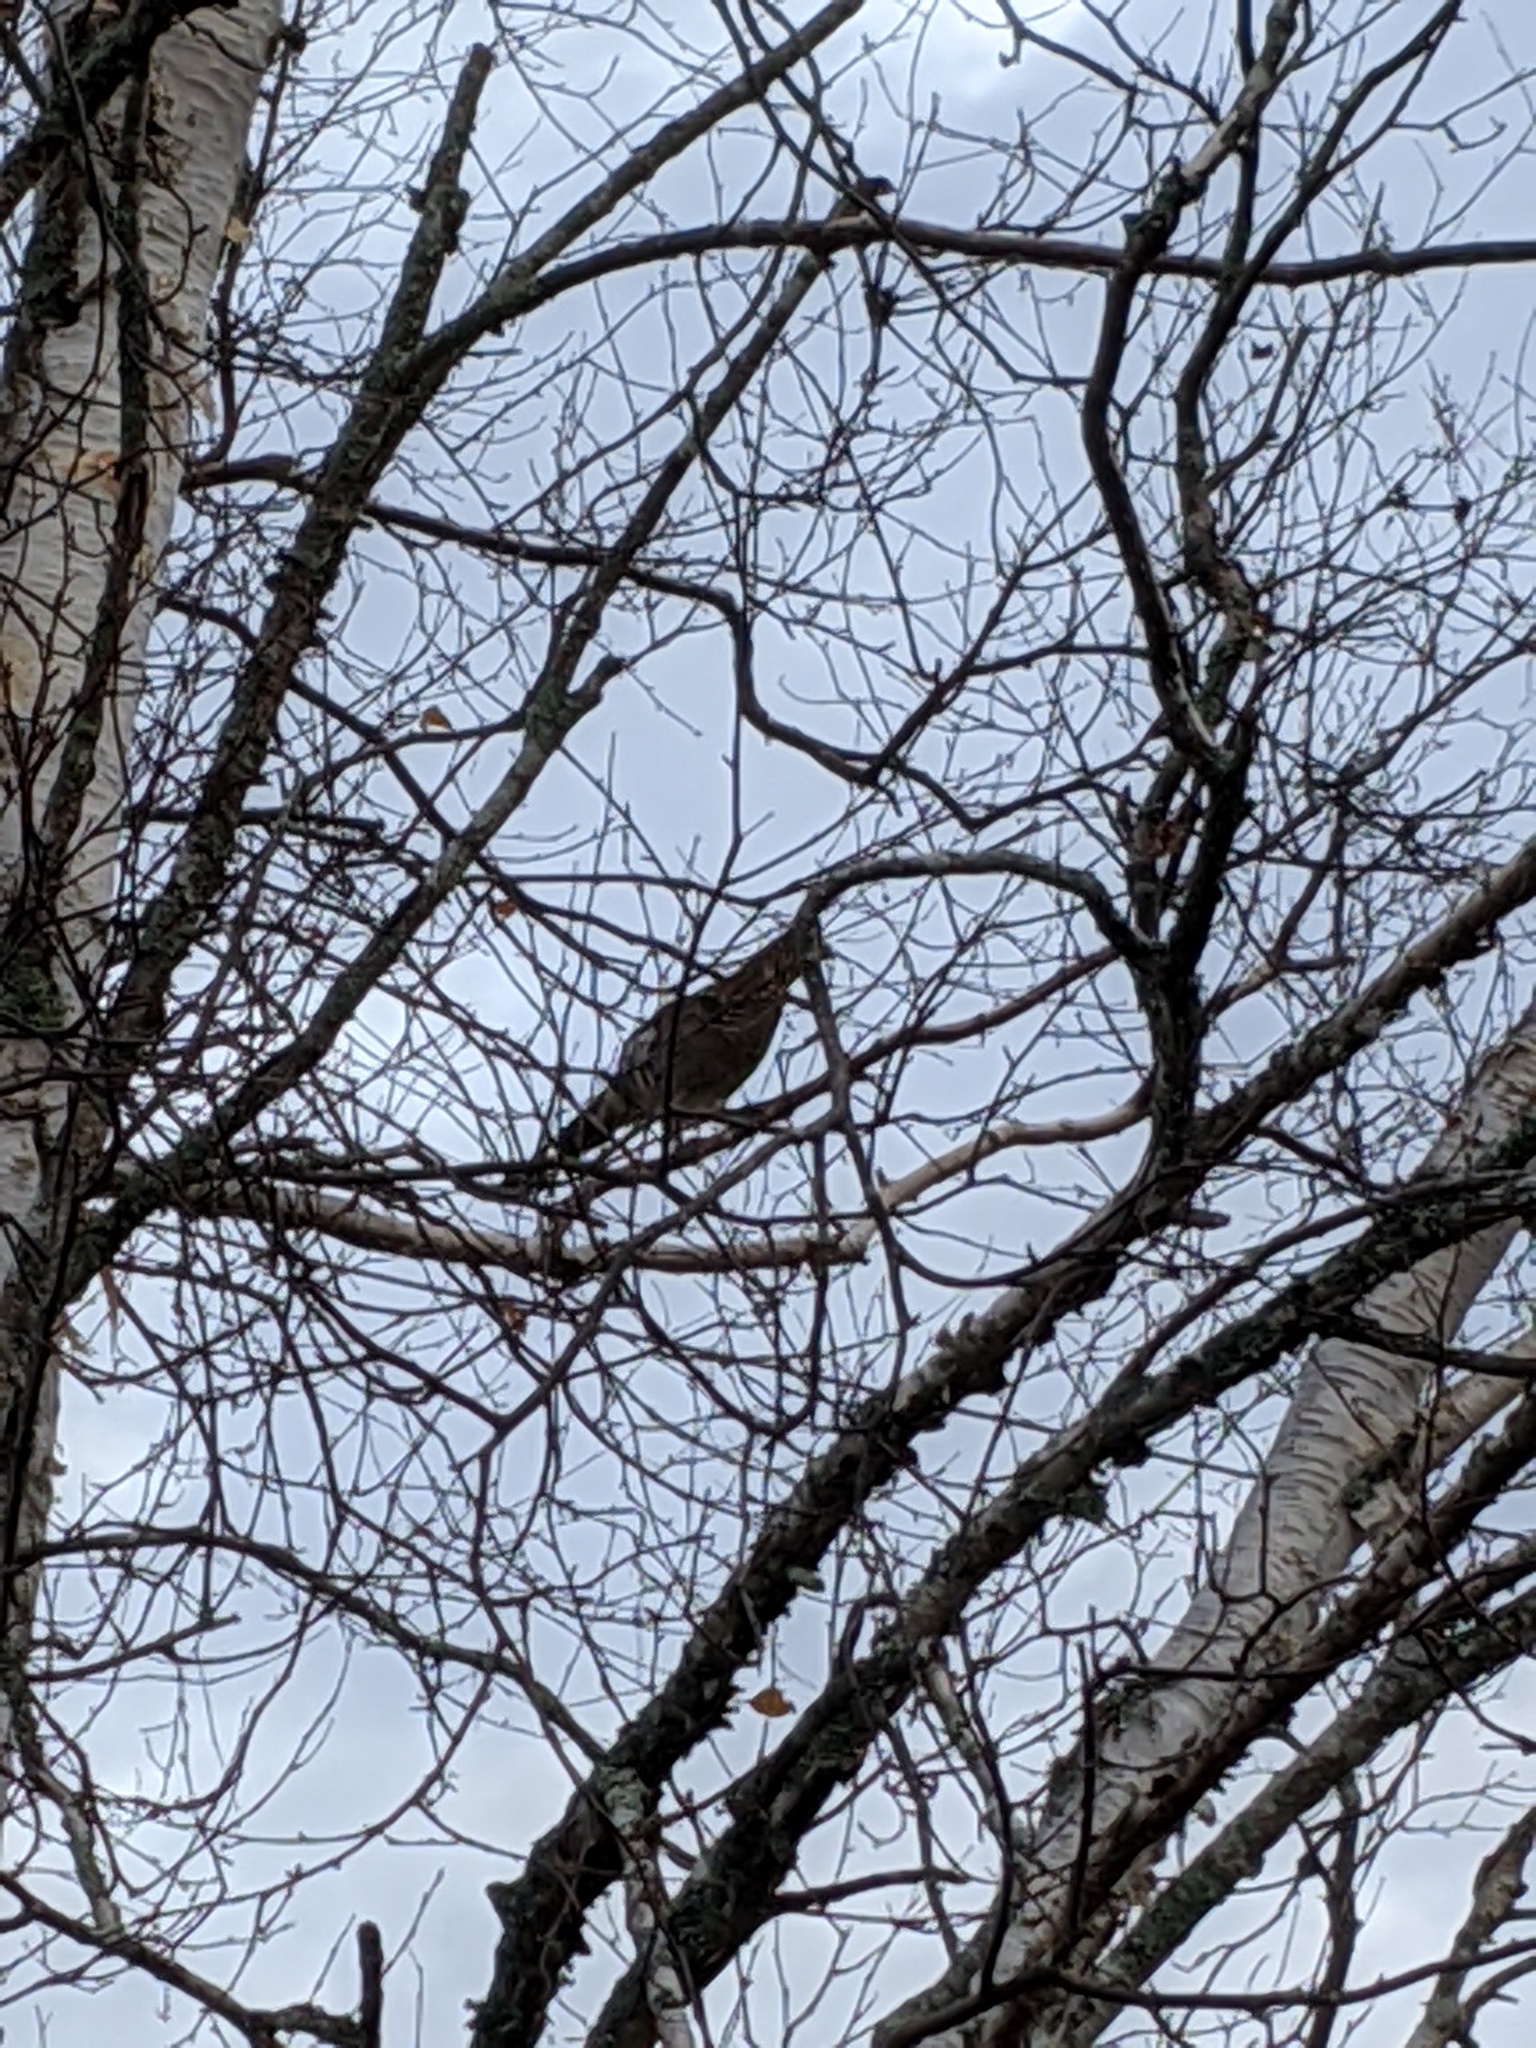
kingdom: Animalia
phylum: Chordata
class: Aves
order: Galliformes
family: Phasianidae
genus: Bonasa
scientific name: Bonasa umbellus
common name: Ruffed grouse
